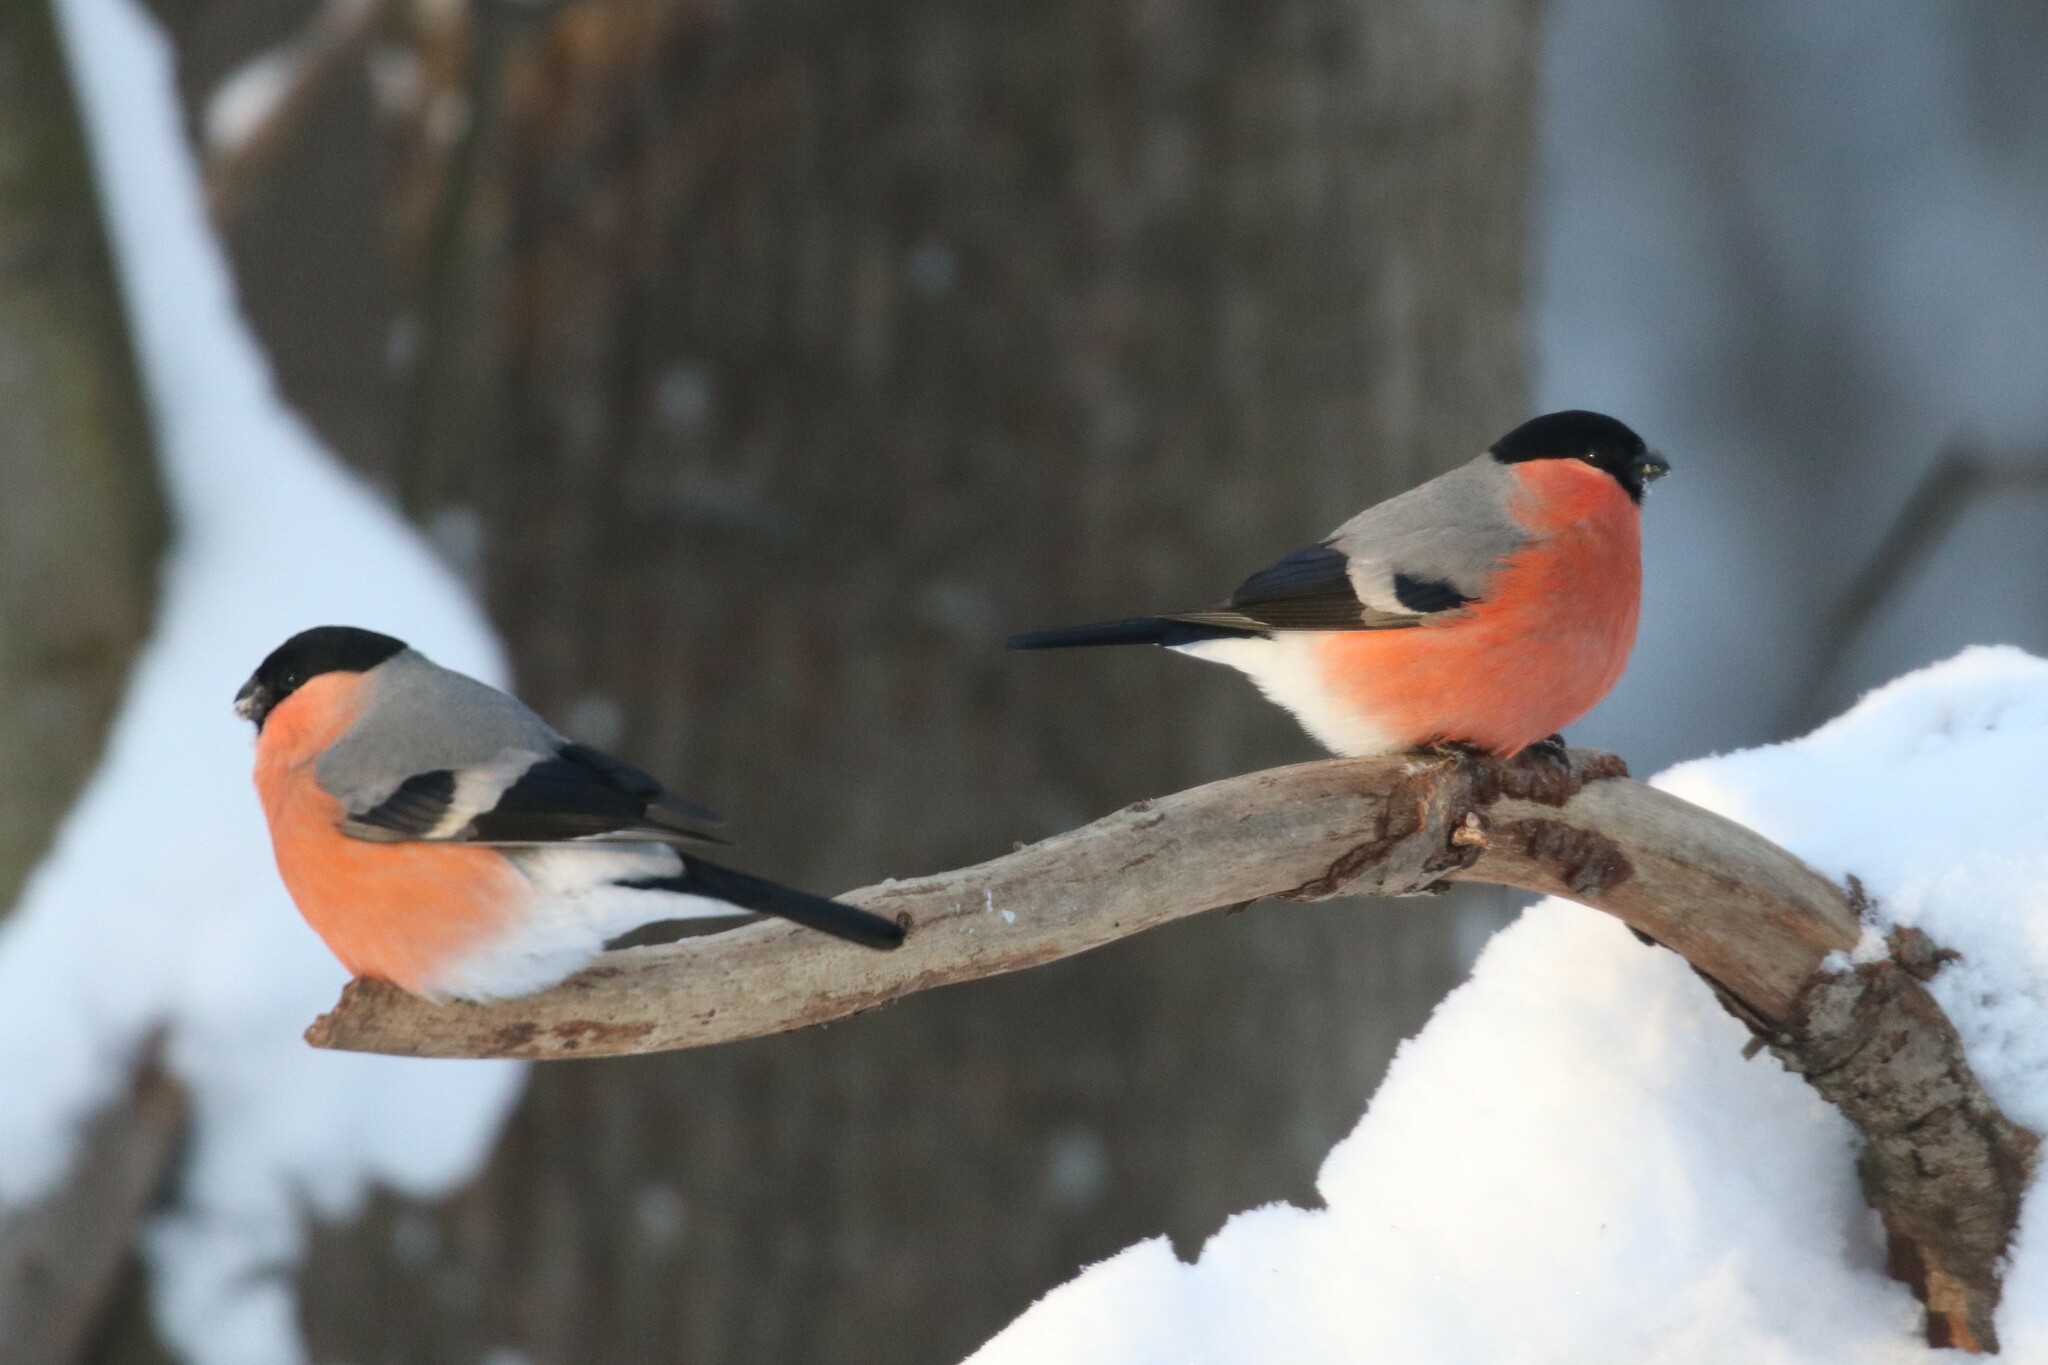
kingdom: Animalia
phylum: Chordata
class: Aves
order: Passeriformes
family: Fringillidae
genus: Pyrrhula
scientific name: Pyrrhula pyrrhula
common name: Eurasian bullfinch
